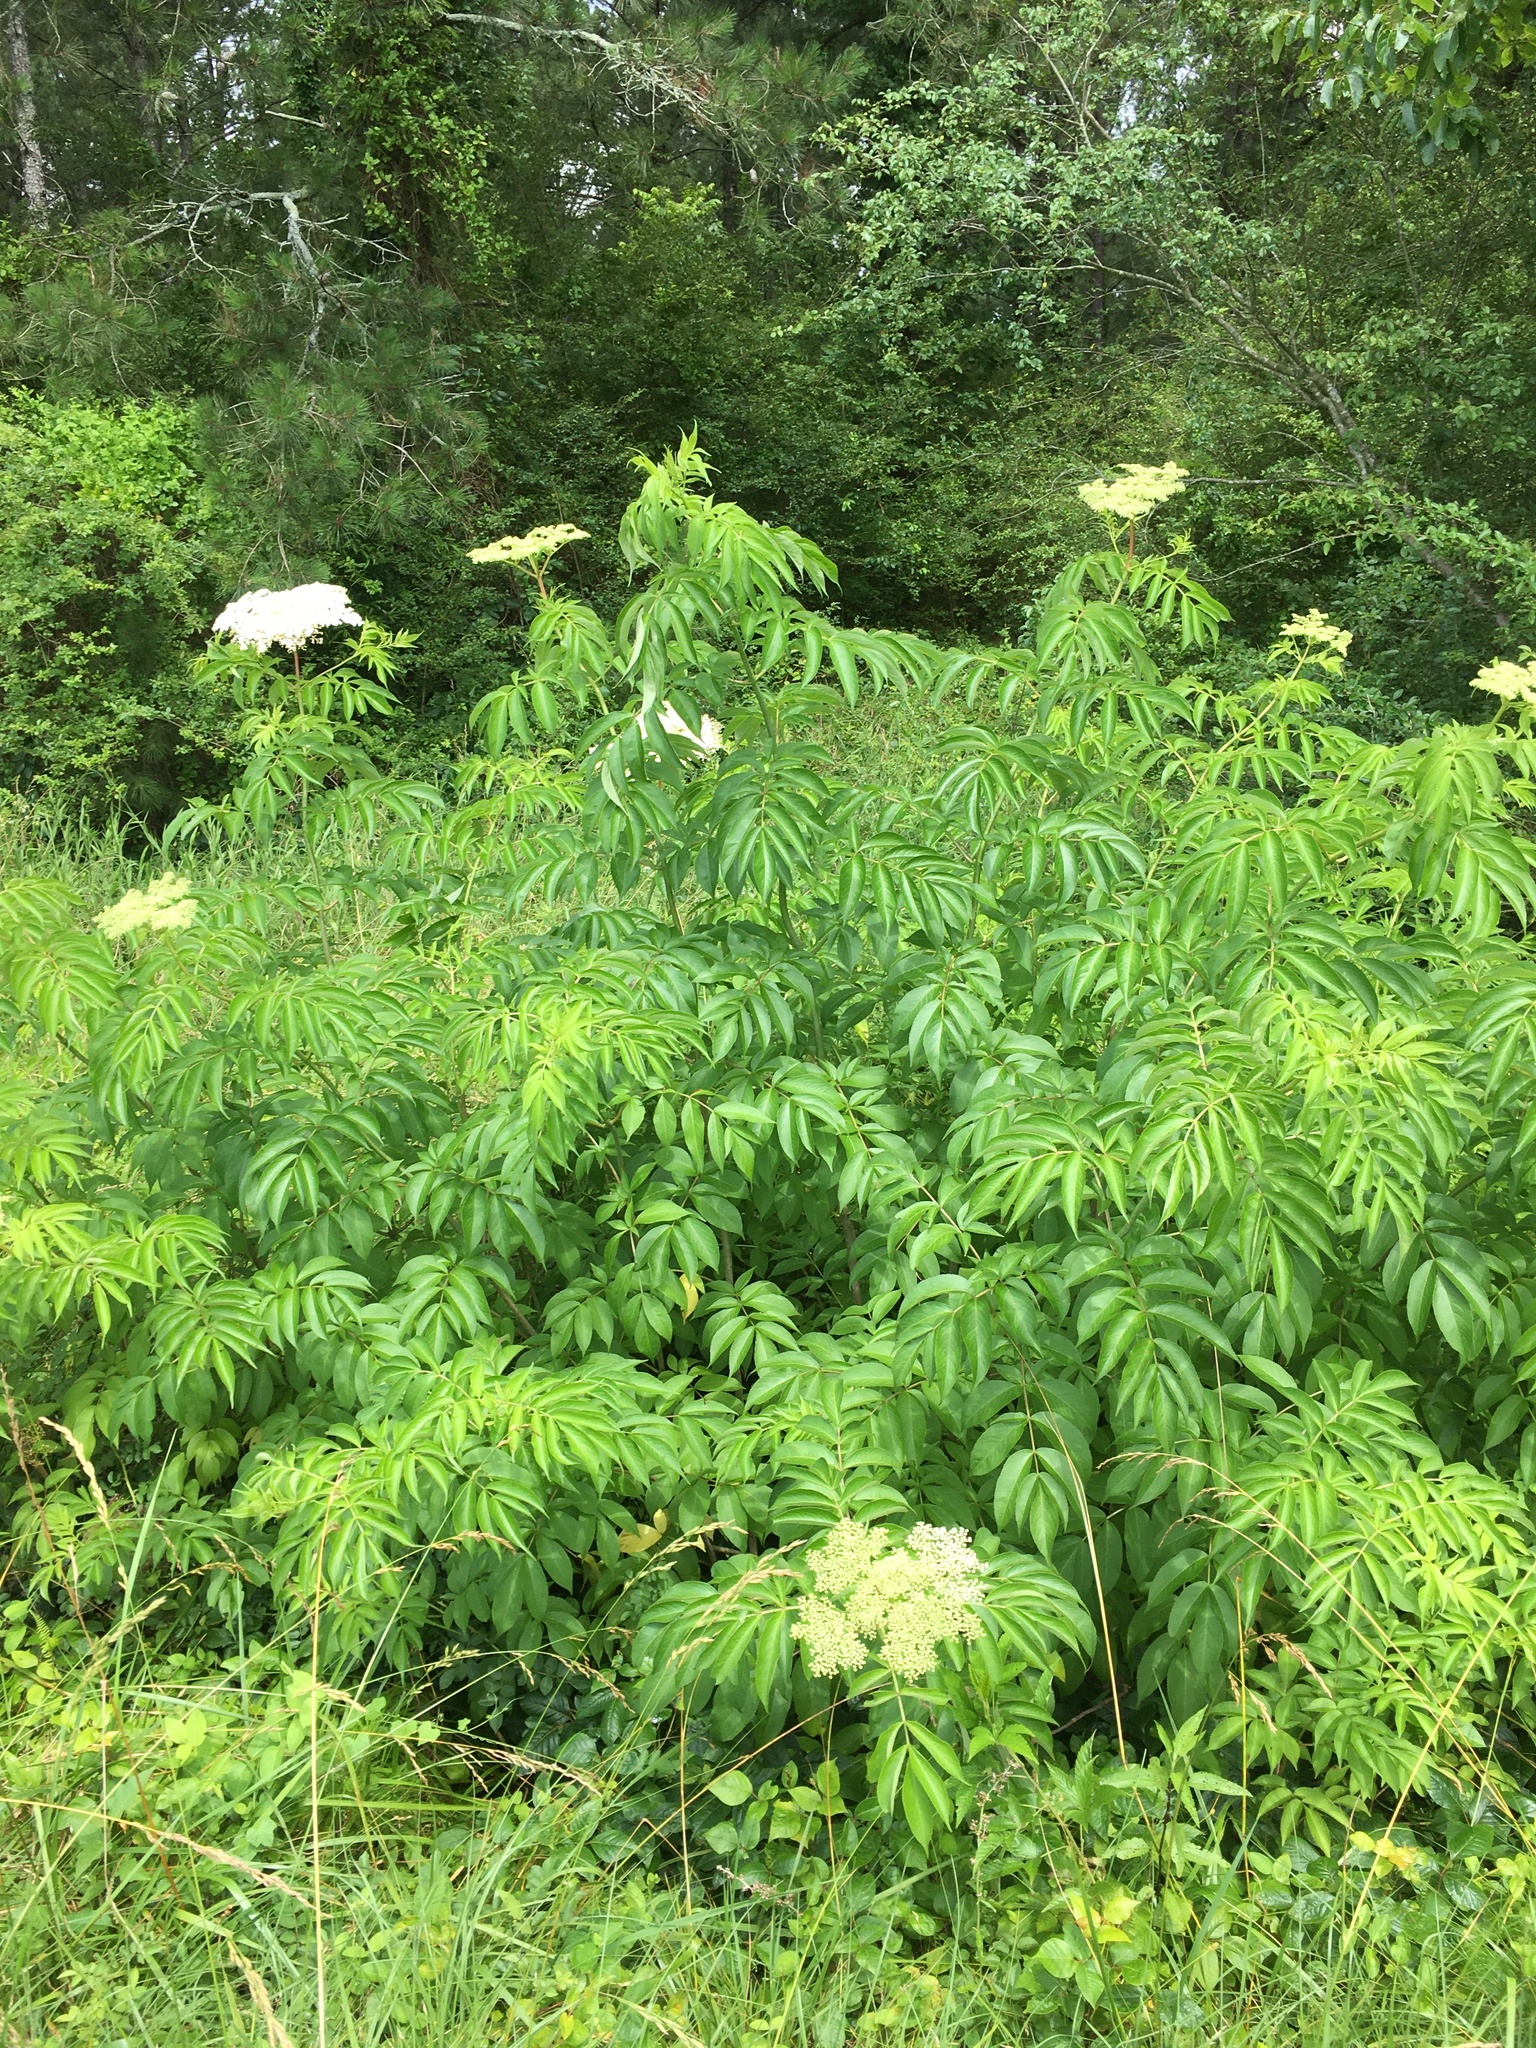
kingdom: Plantae
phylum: Tracheophyta
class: Magnoliopsida
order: Dipsacales
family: Viburnaceae
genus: Sambucus
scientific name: Sambucus canadensis
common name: American elder
